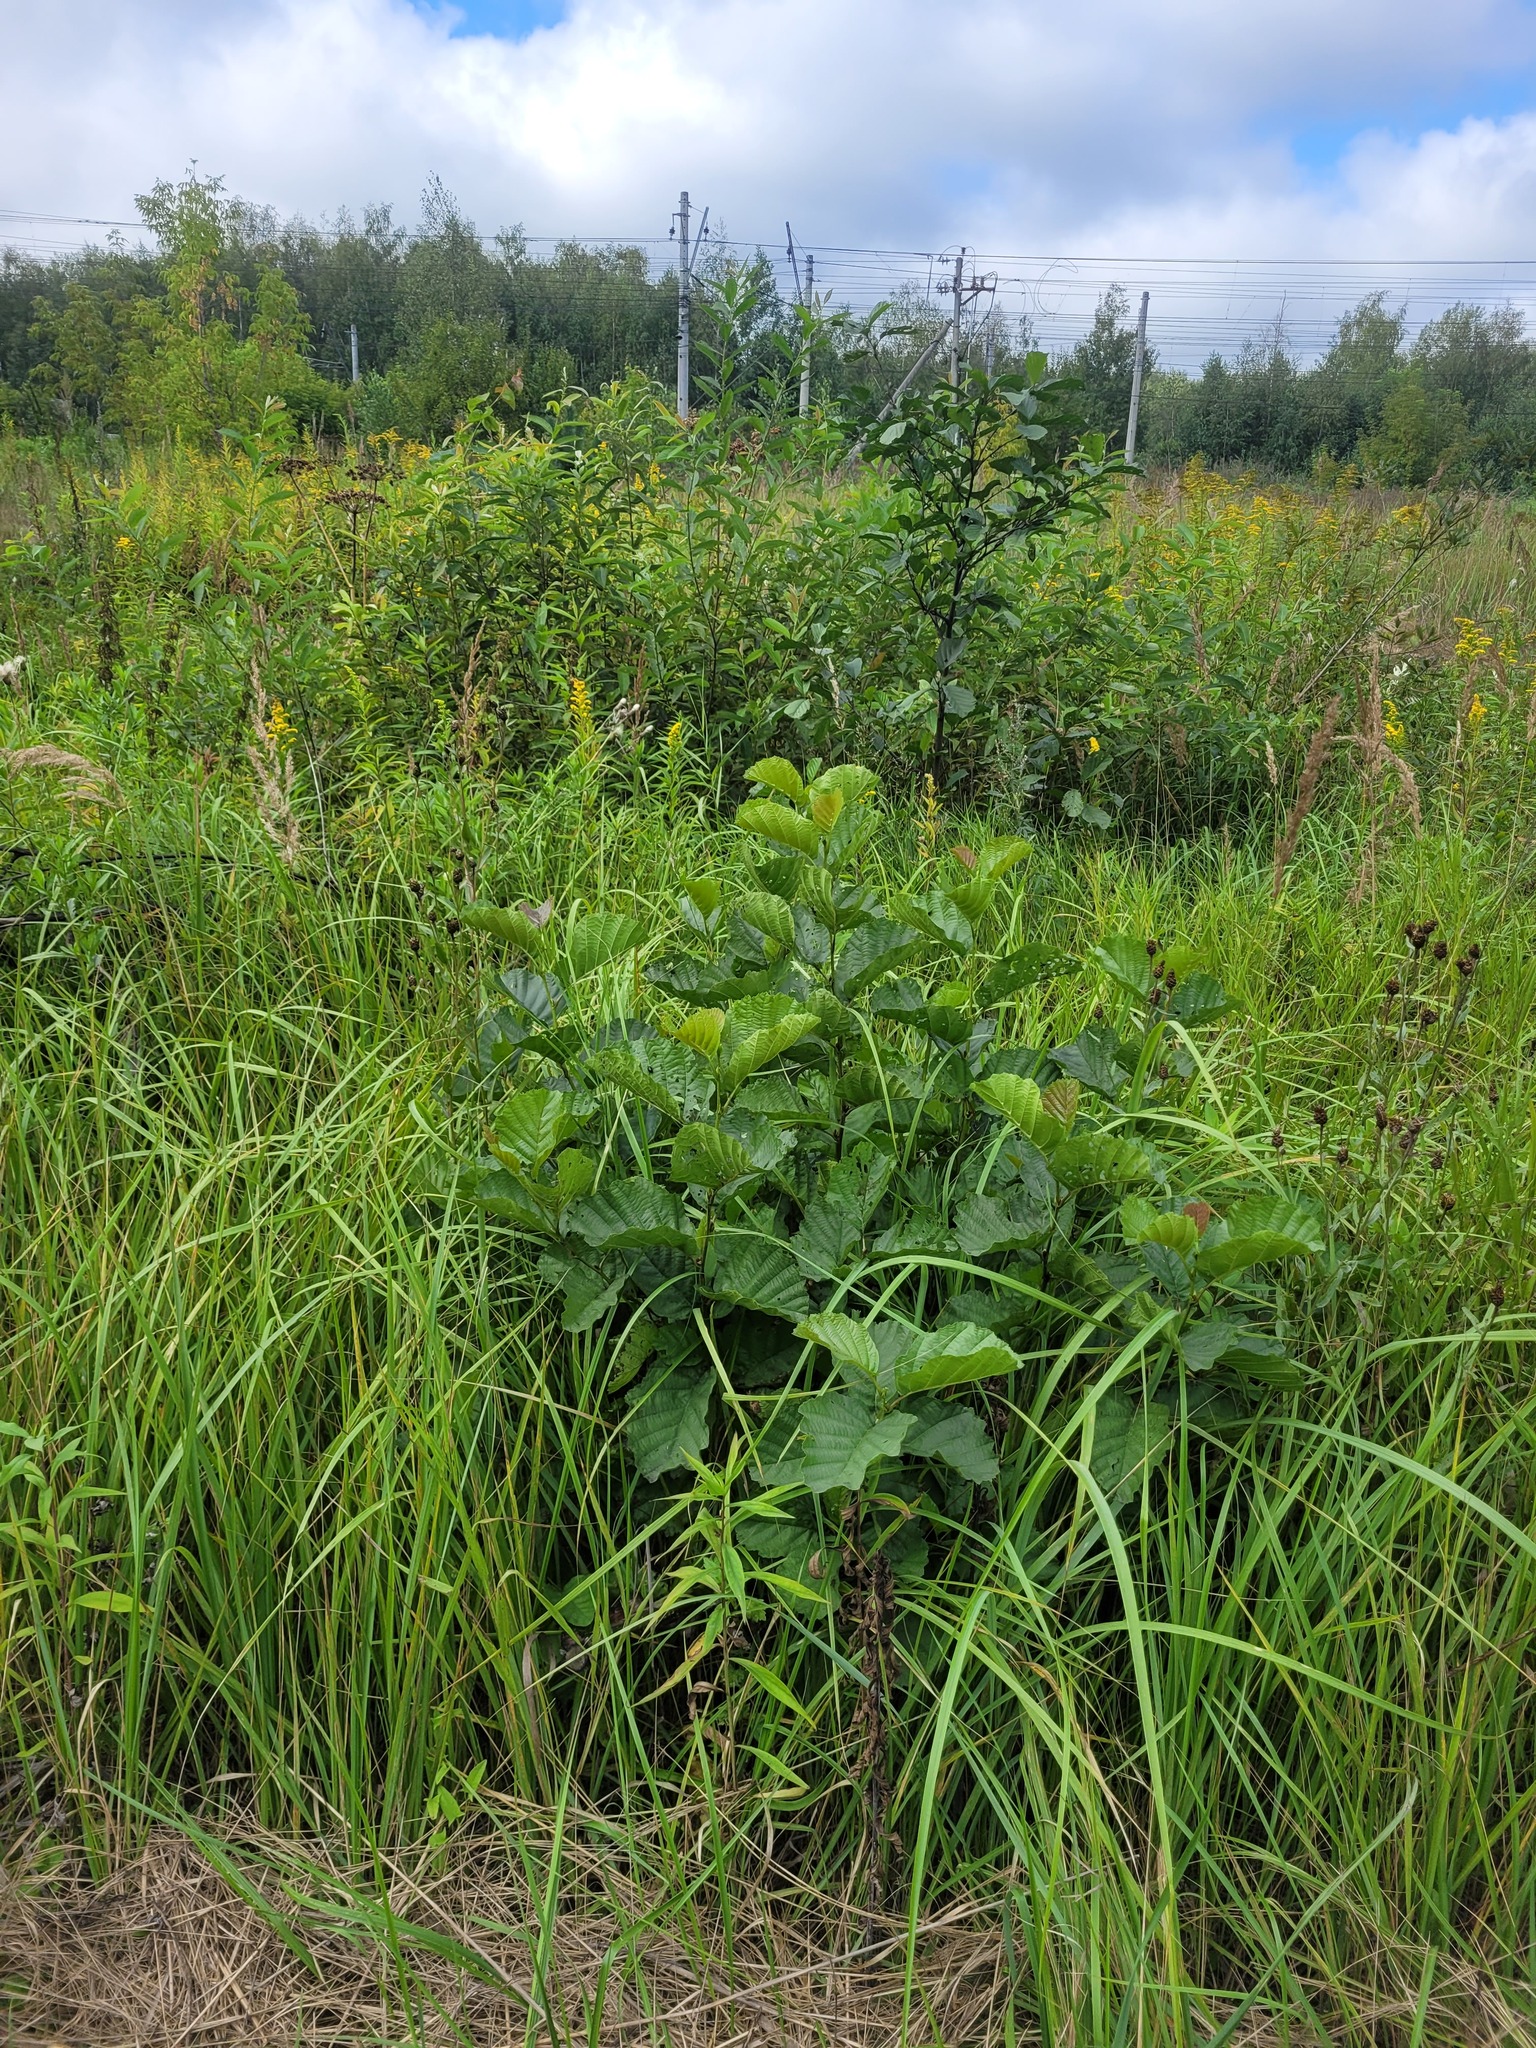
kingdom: Plantae
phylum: Tracheophyta
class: Magnoliopsida
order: Fagales
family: Betulaceae
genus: Alnus
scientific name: Alnus glutinosa
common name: Black alder
